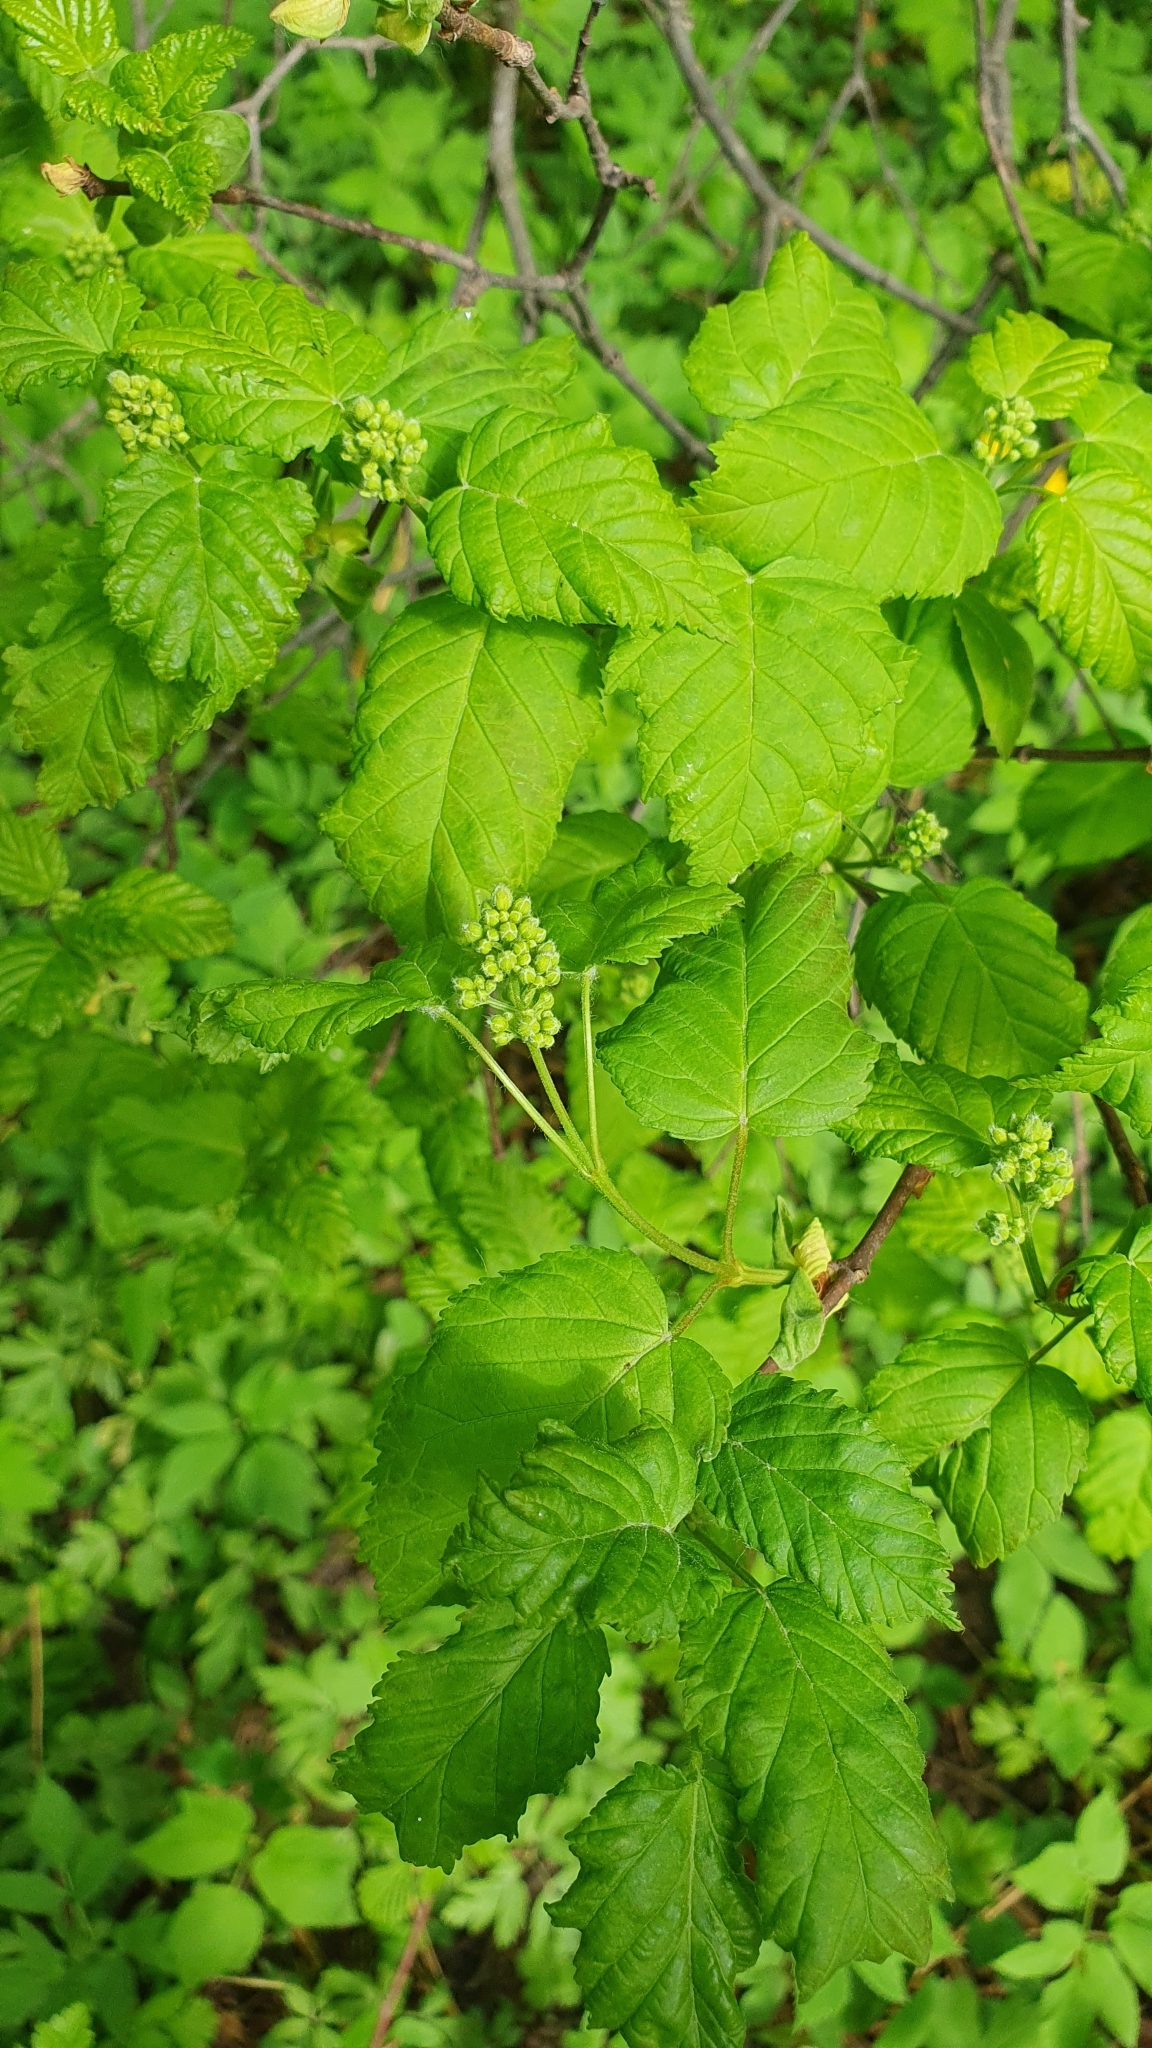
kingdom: Plantae
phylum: Tracheophyta
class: Magnoliopsida
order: Sapindales
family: Sapindaceae
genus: Acer
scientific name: Acer tataricum
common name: Tartar maple
